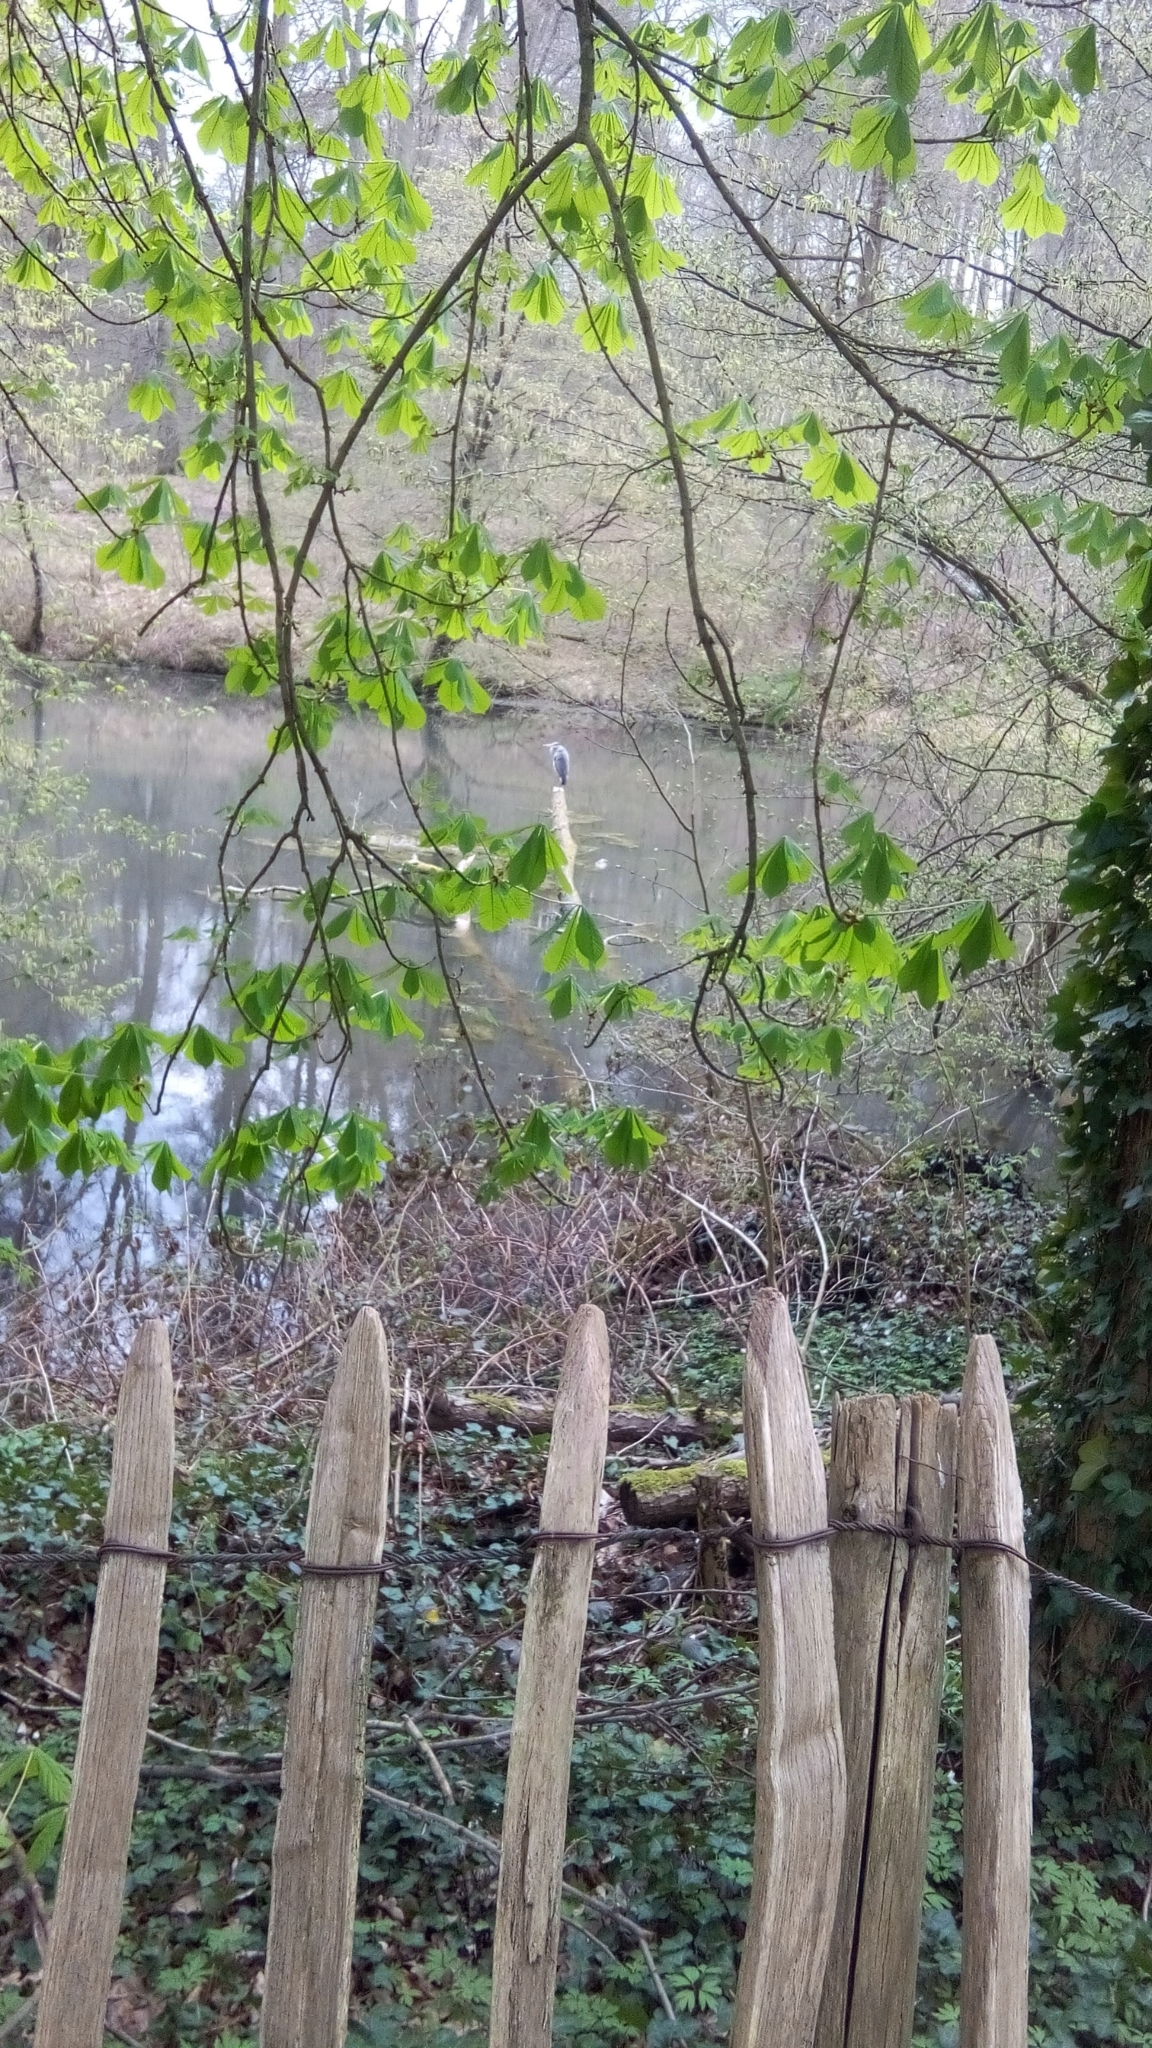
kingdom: Animalia
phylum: Chordata
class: Aves
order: Pelecaniformes
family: Ardeidae
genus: Ardea
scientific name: Ardea cinerea
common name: Grey heron
